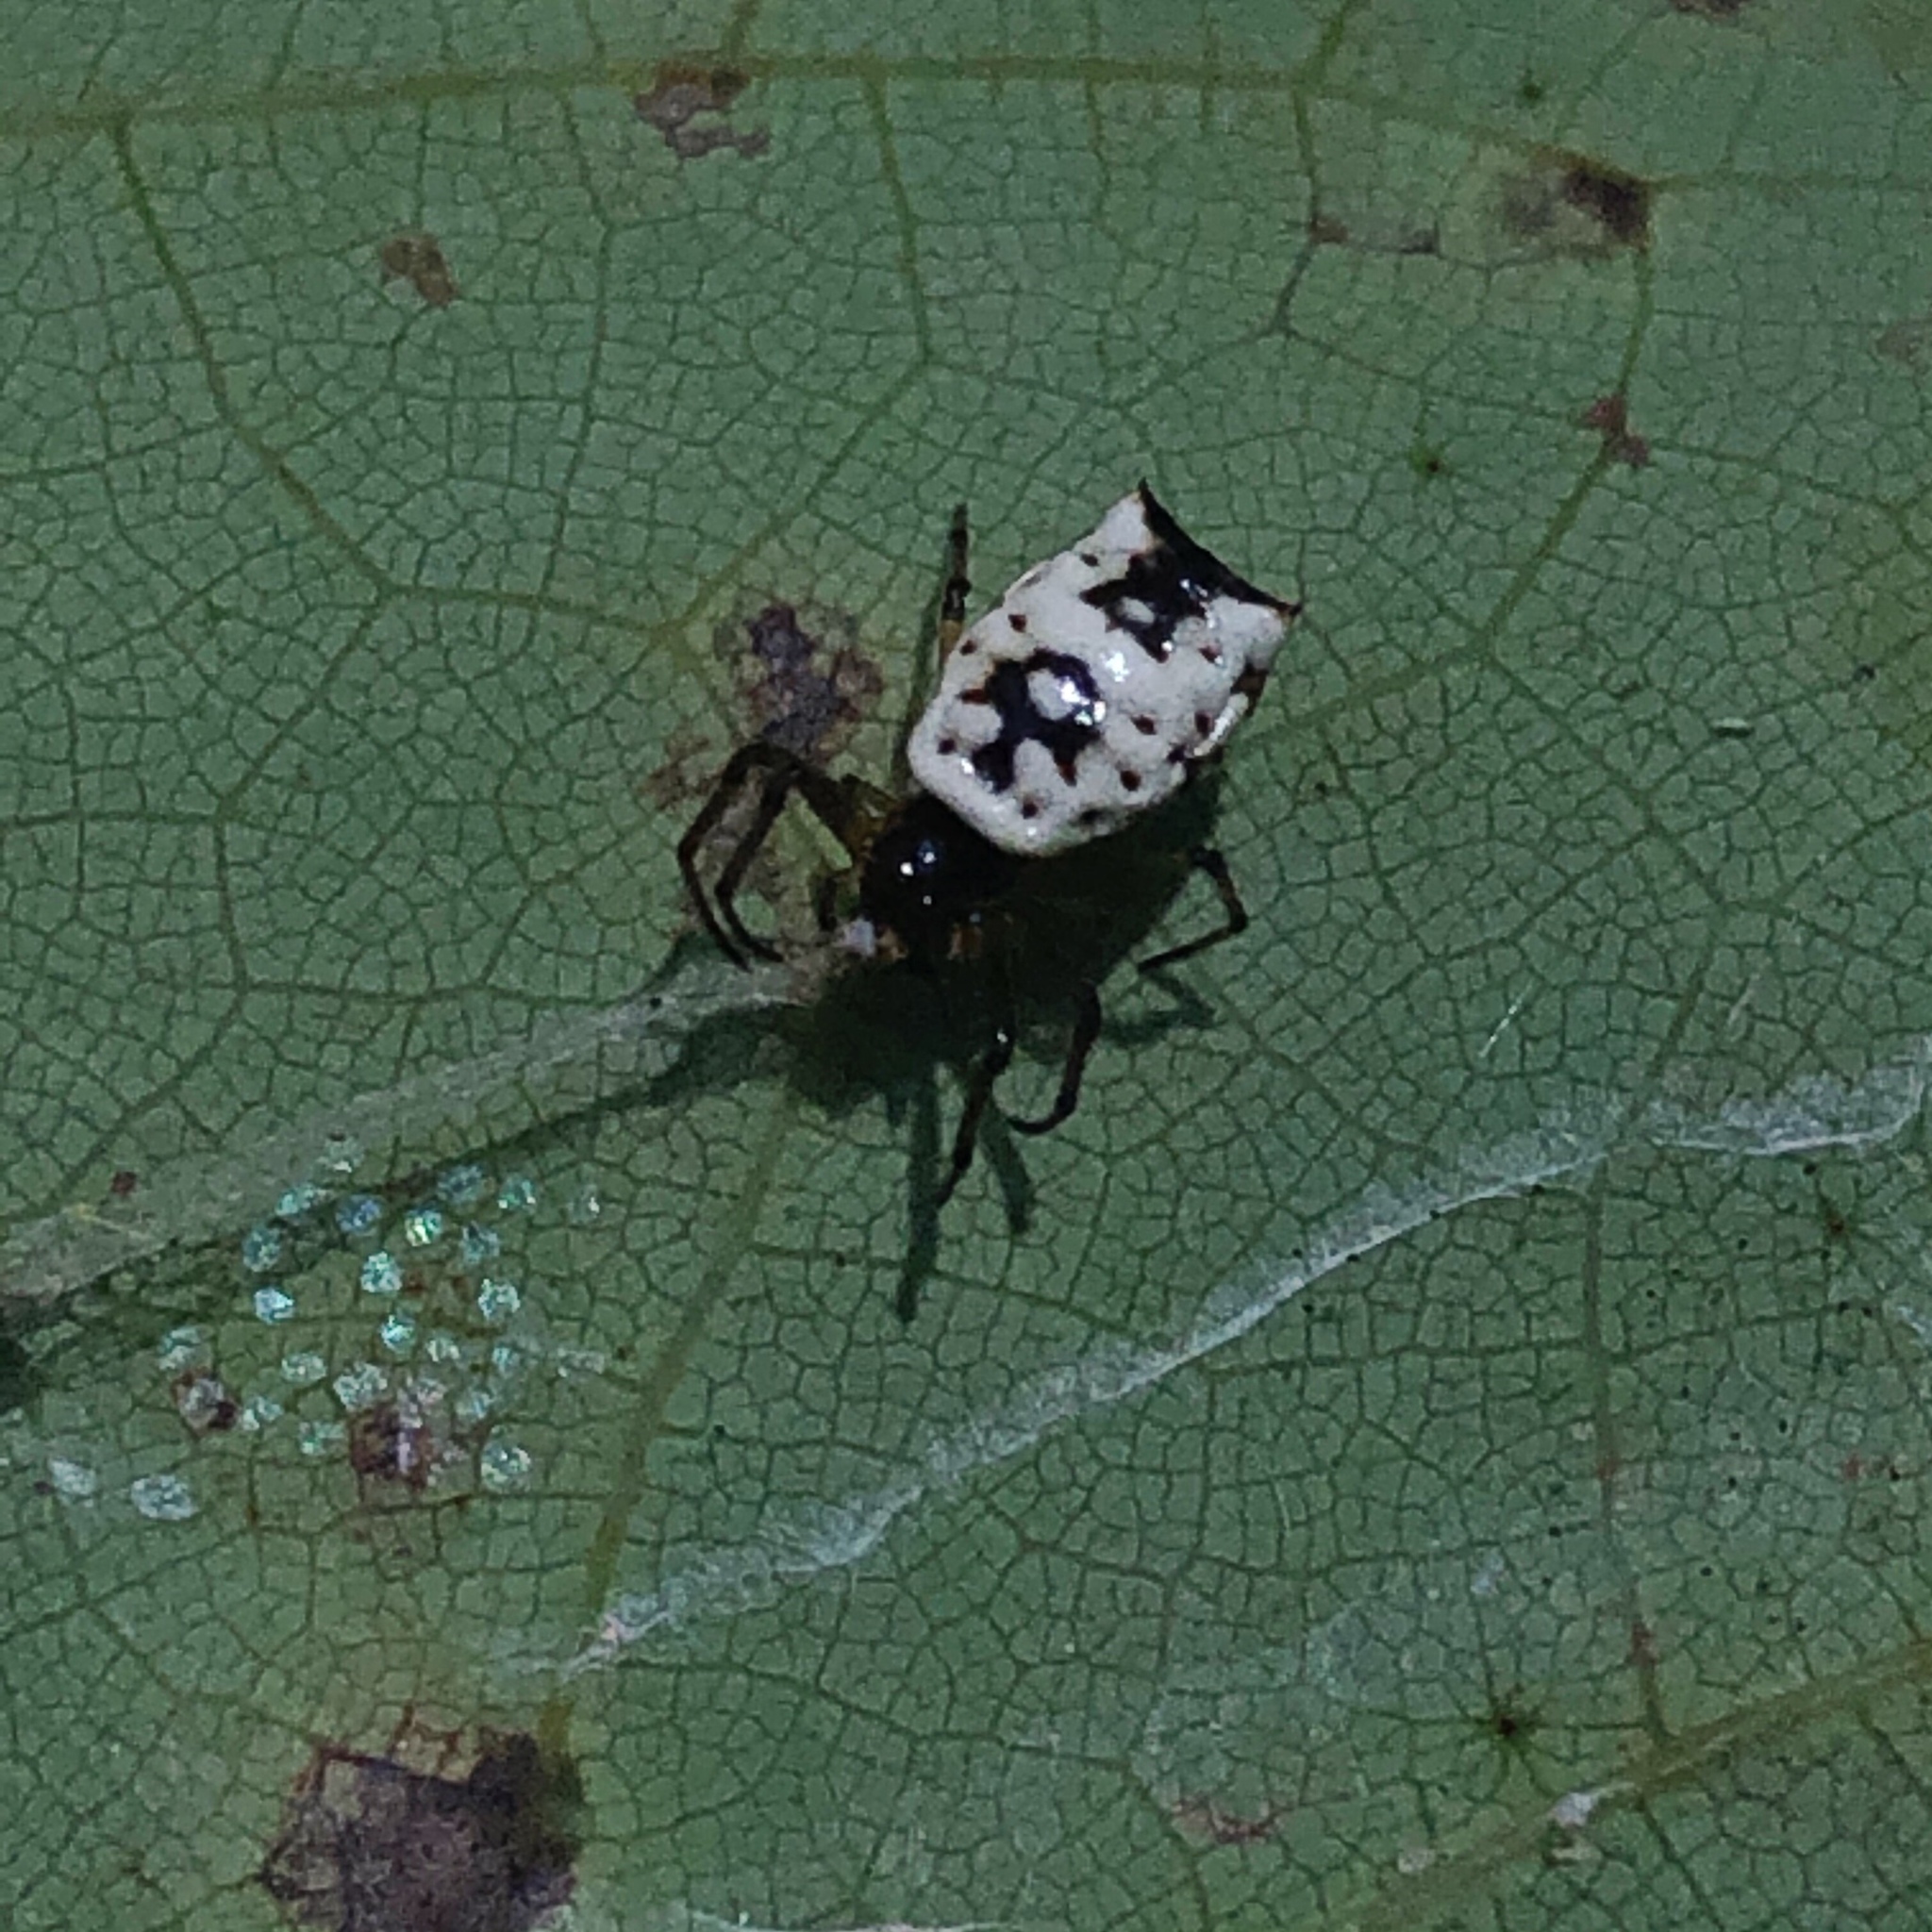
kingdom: Animalia
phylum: Arthropoda
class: Arachnida
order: Araneae
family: Araneidae
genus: Micrathena
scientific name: Micrathena mitrata
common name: Orb weavers
